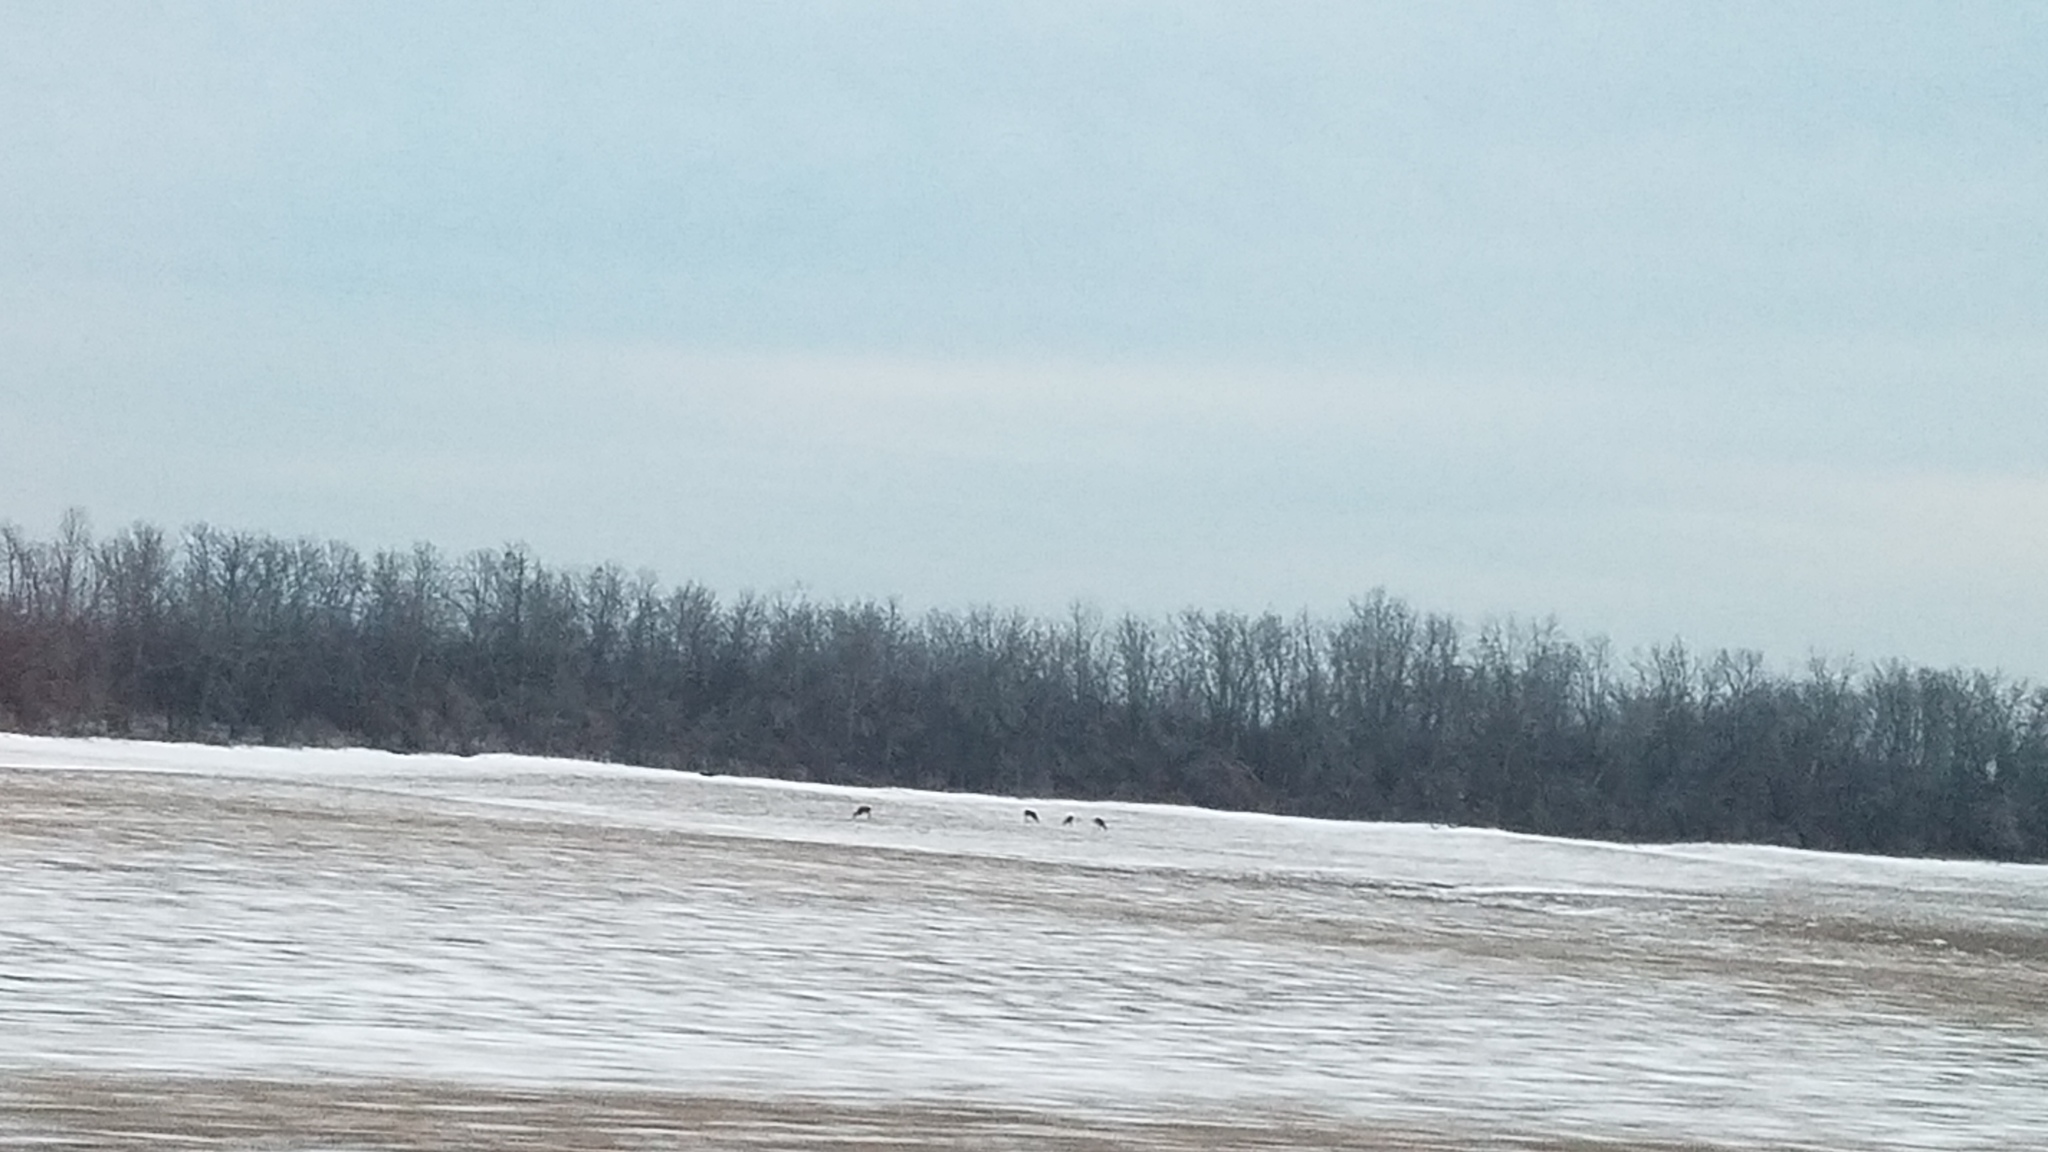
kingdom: Animalia
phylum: Chordata
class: Mammalia
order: Artiodactyla
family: Cervidae
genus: Odocoileus
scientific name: Odocoileus virginianus
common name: White-tailed deer
